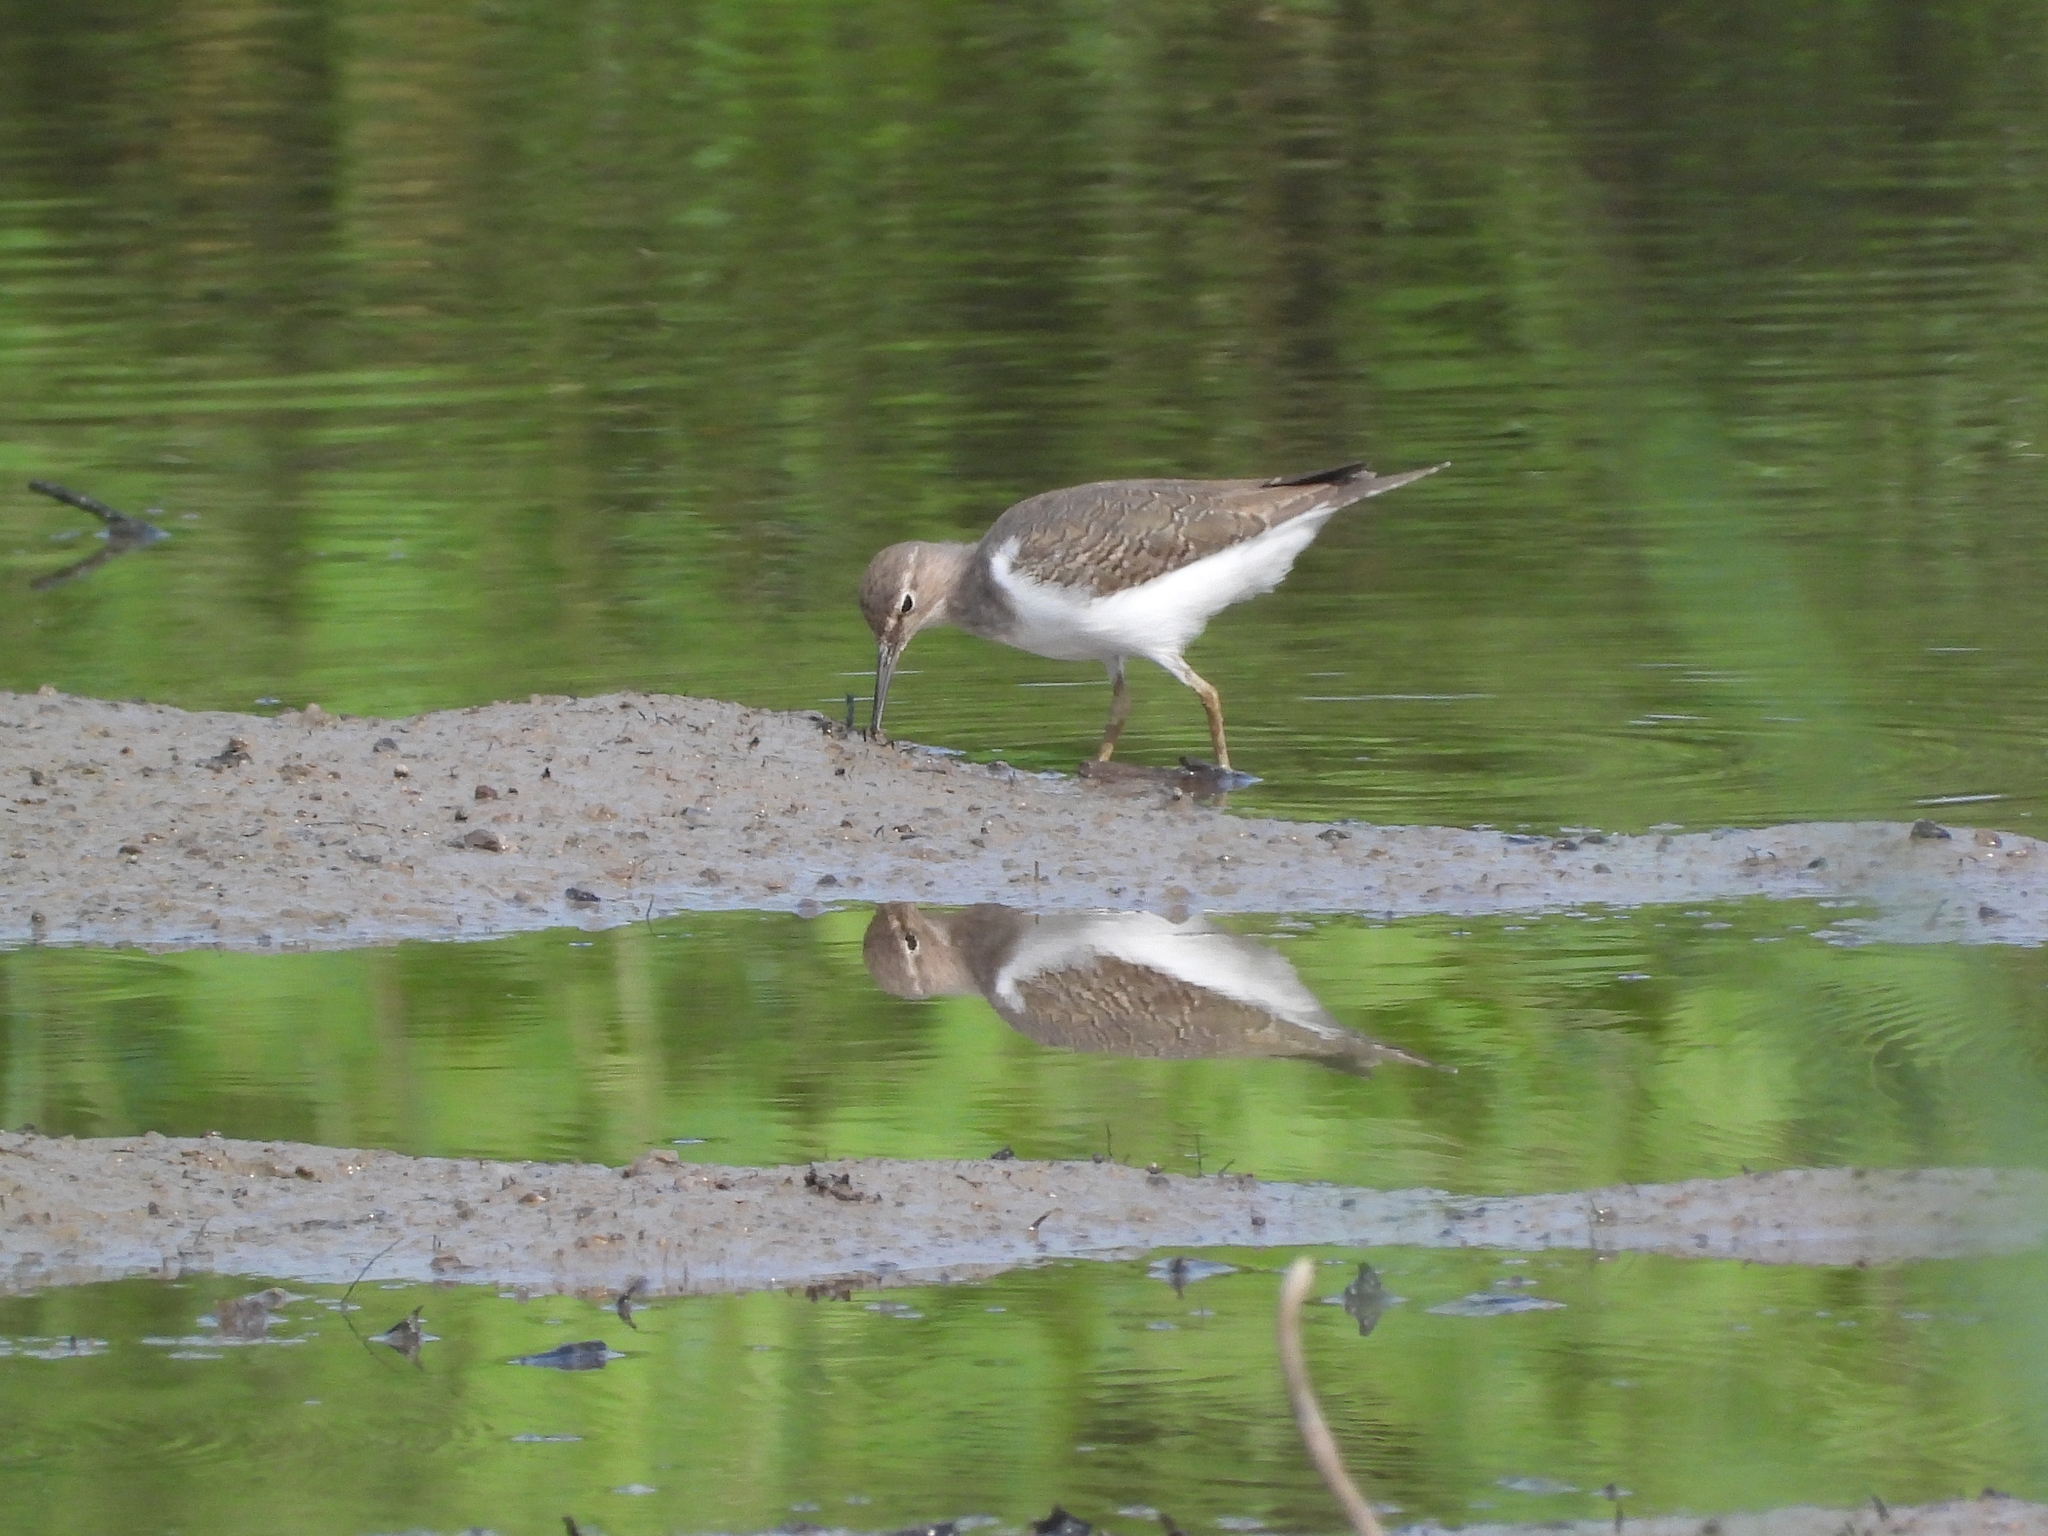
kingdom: Animalia
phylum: Chordata
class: Aves
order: Charadriiformes
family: Scolopacidae
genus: Actitis
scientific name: Actitis hypoleucos
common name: Common sandpiper
